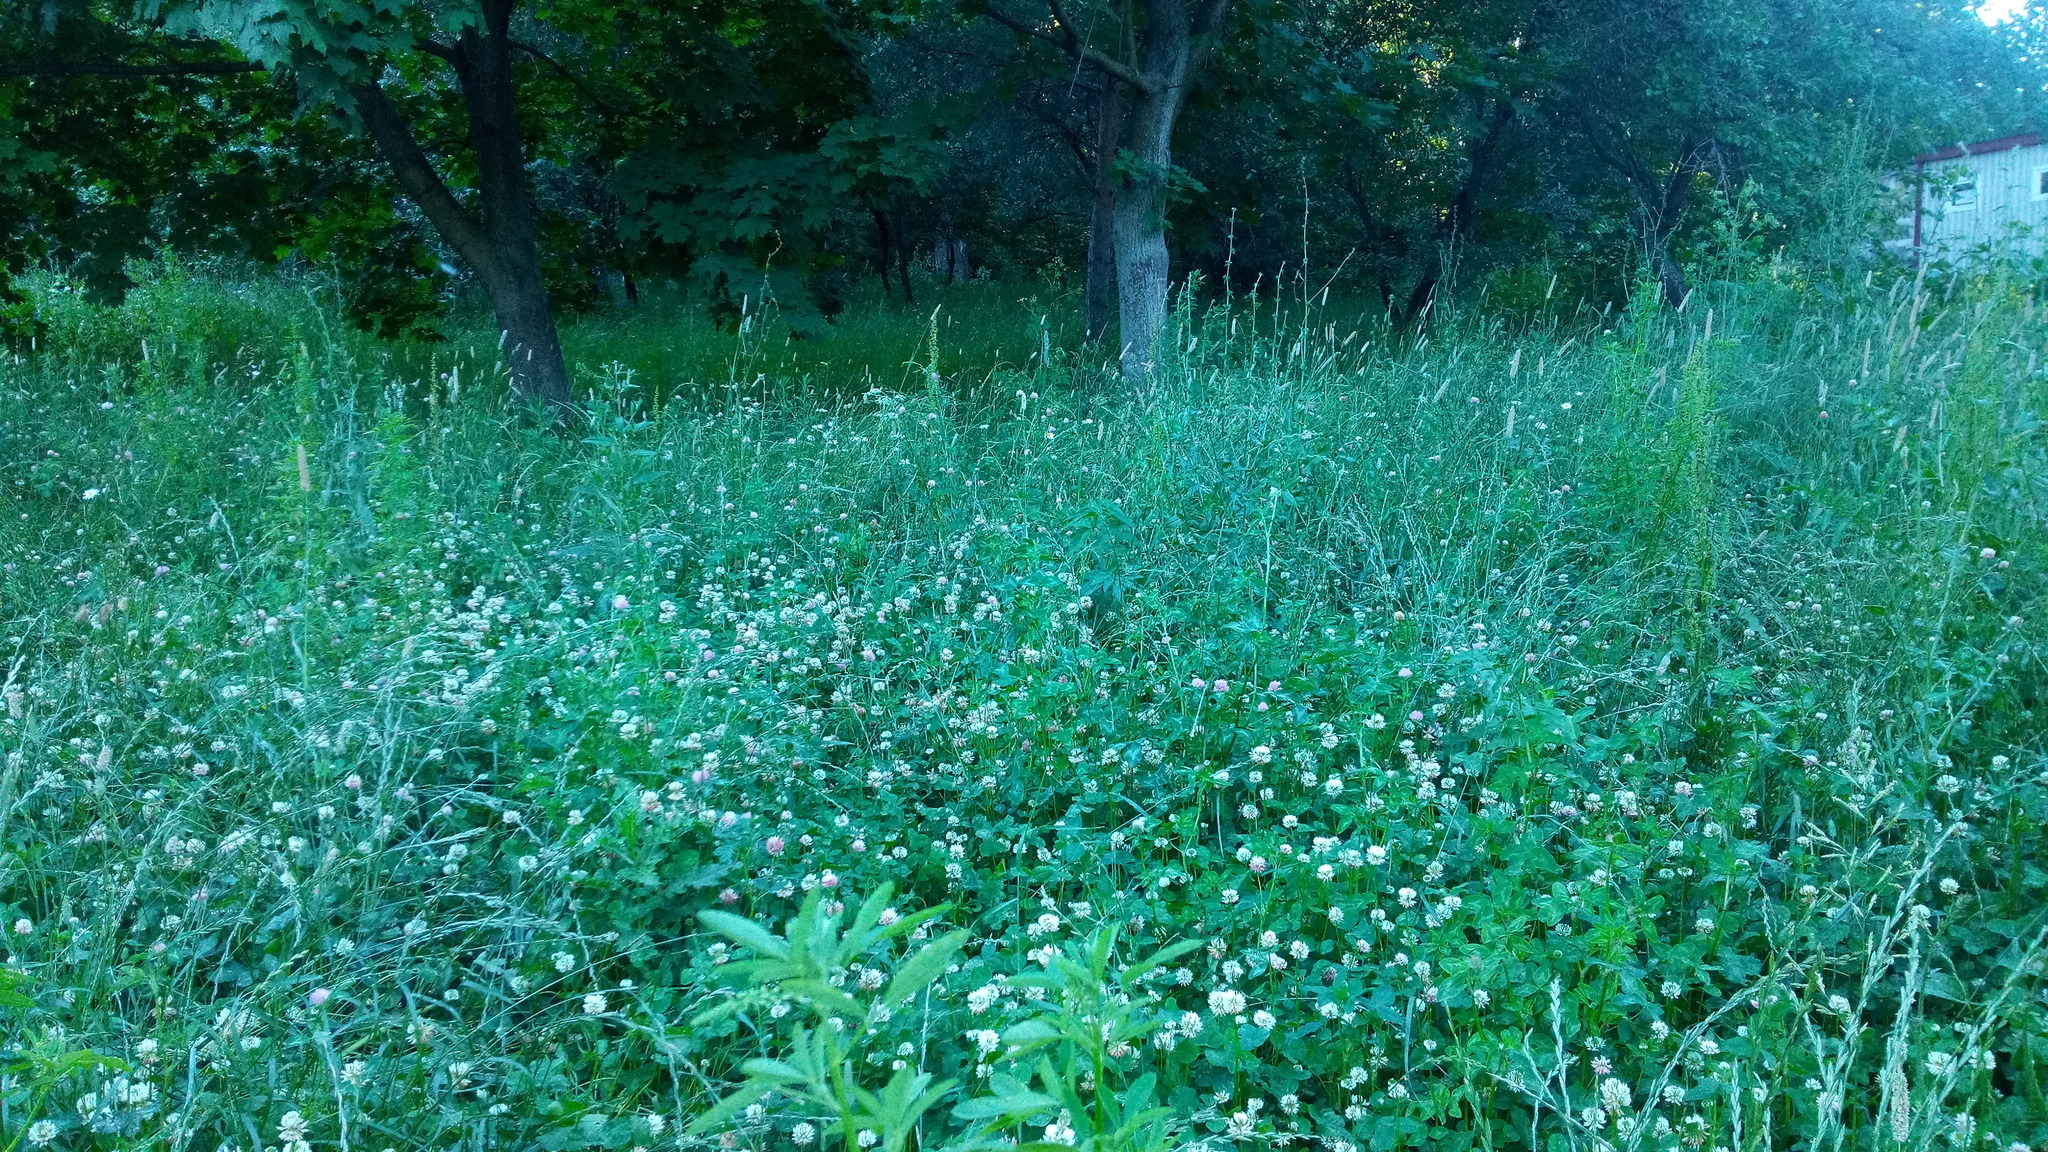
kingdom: Plantae
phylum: Tracheophyta
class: Magnoliopsida
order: Fabales
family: Fabaceae
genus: Trifolium
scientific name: Trifolium repens
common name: White clover
